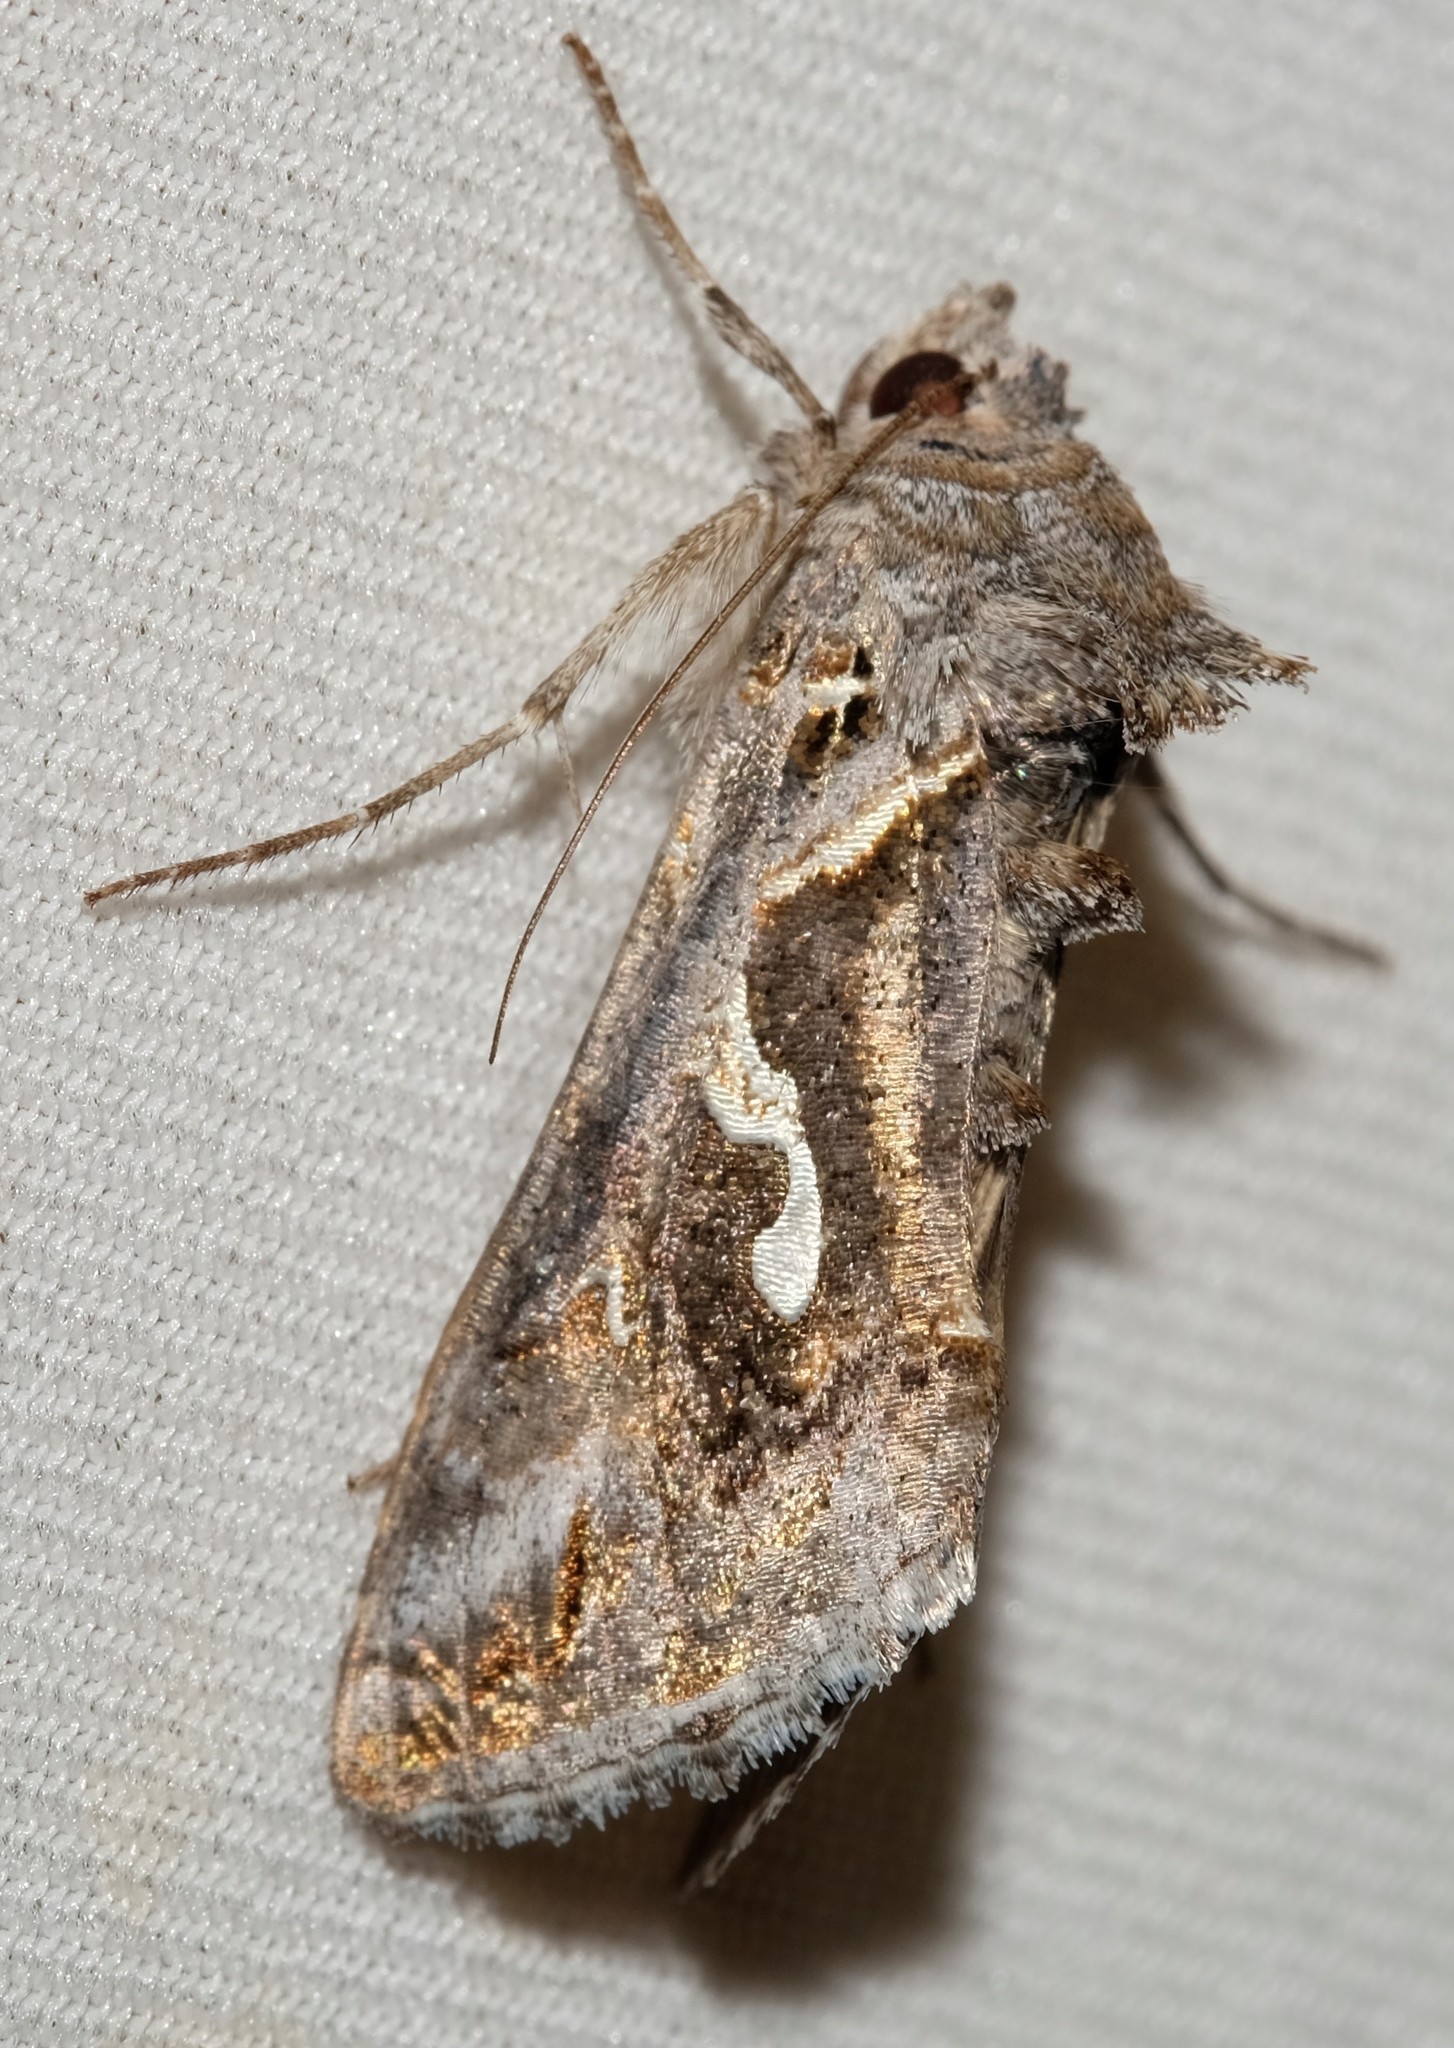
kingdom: Animalia
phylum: Arthropoda
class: Insecta
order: Lepidoptera
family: Noctuidae
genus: Chrysodeixis
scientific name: Chrysodeixis argentifera
